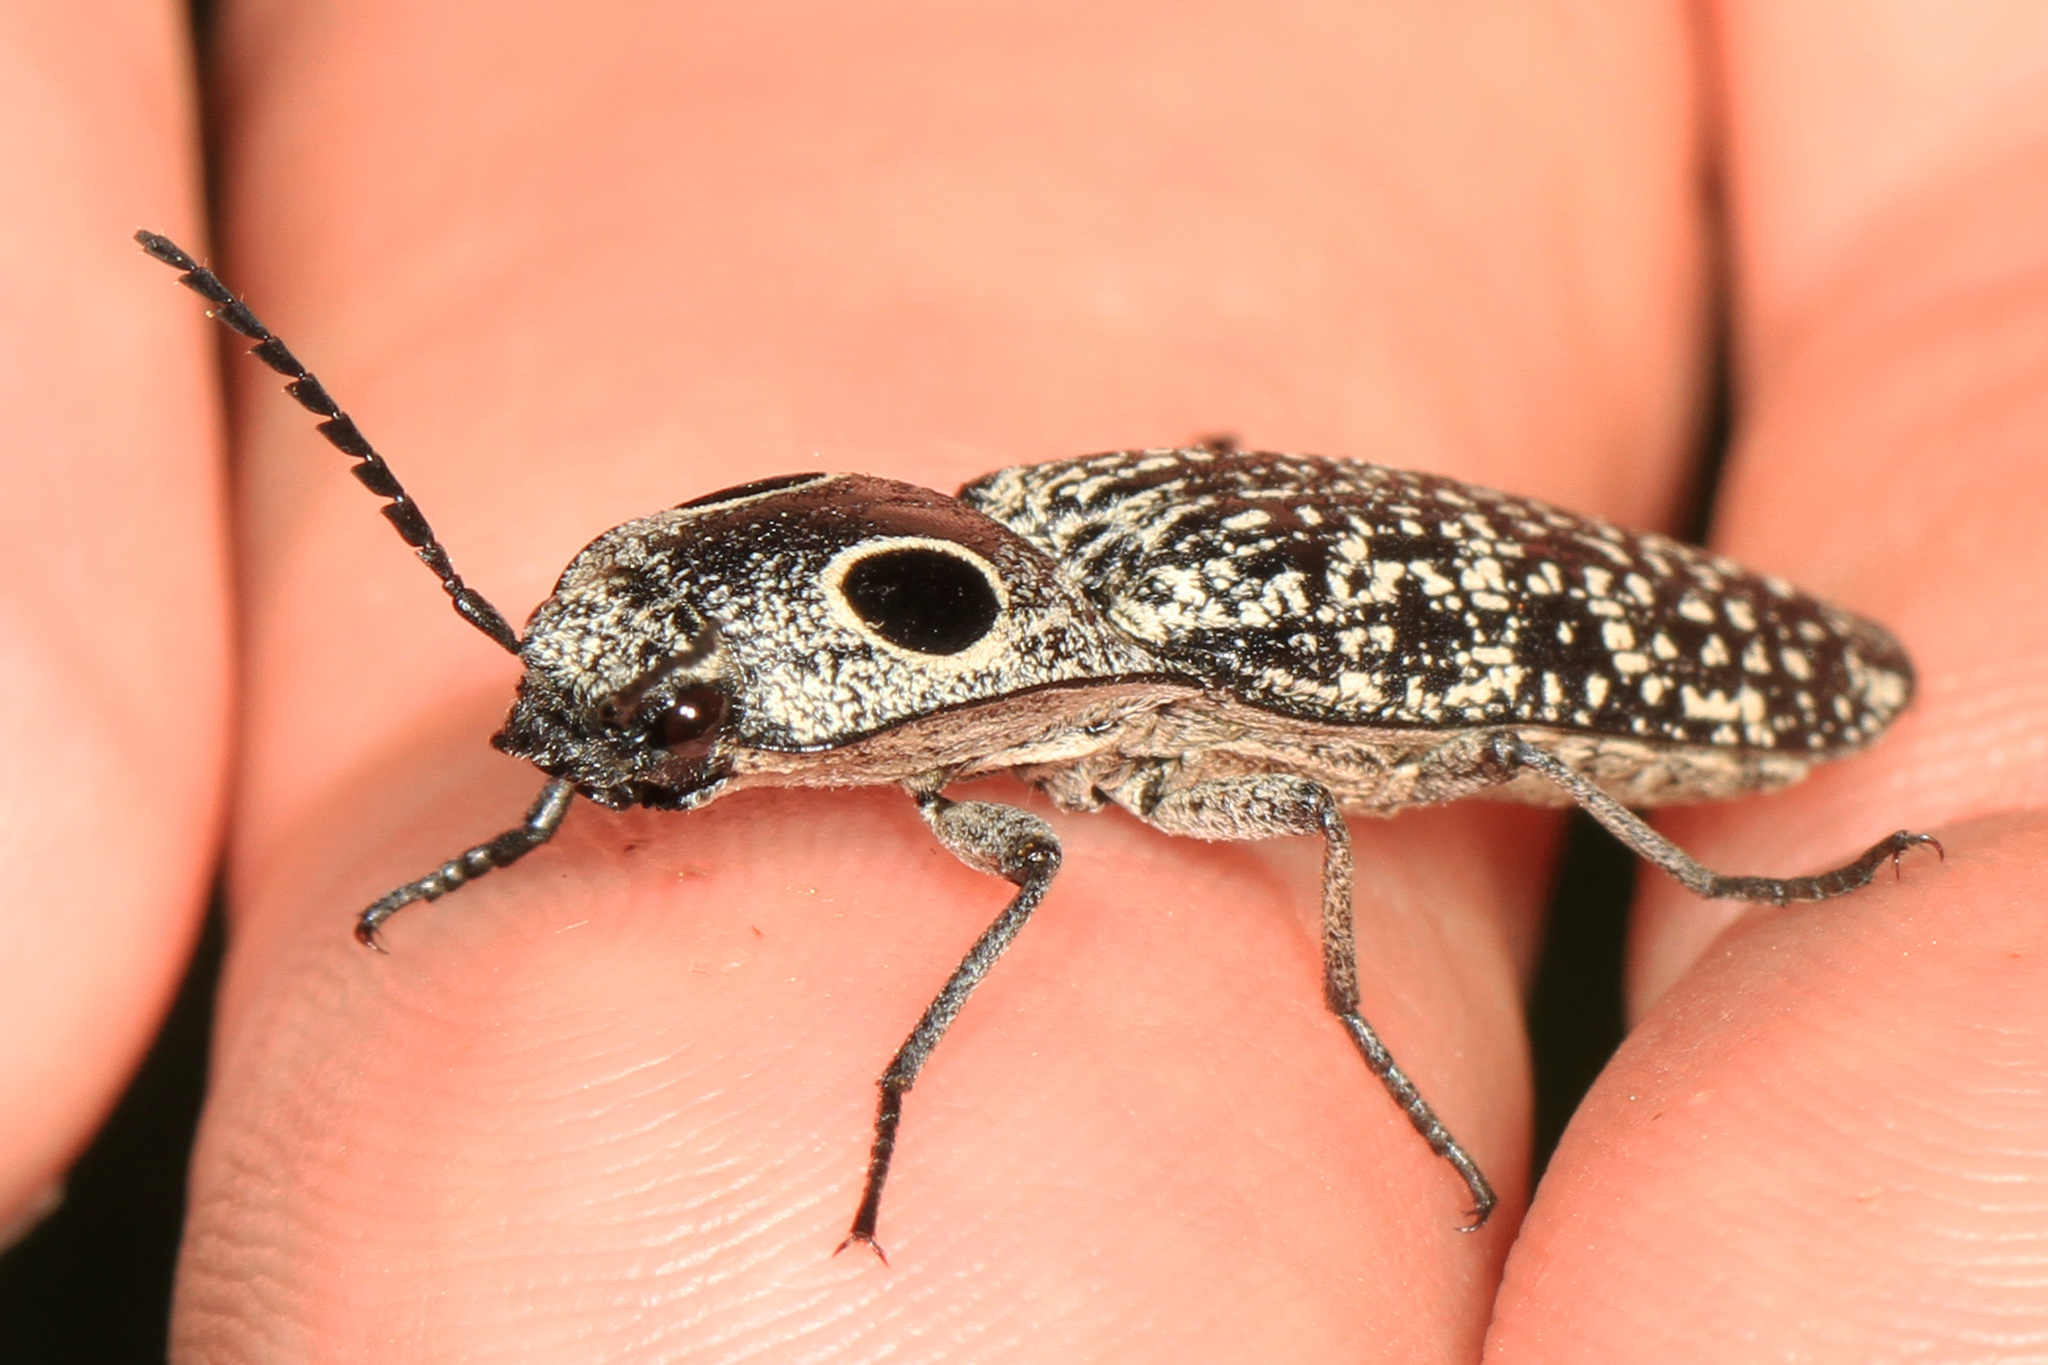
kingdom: Animalia
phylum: Arthropoda
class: Insecta
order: Coleoptera
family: Elateridae
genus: Alaus
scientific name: Alaus oculatus
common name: Eastern eyed click beetle
